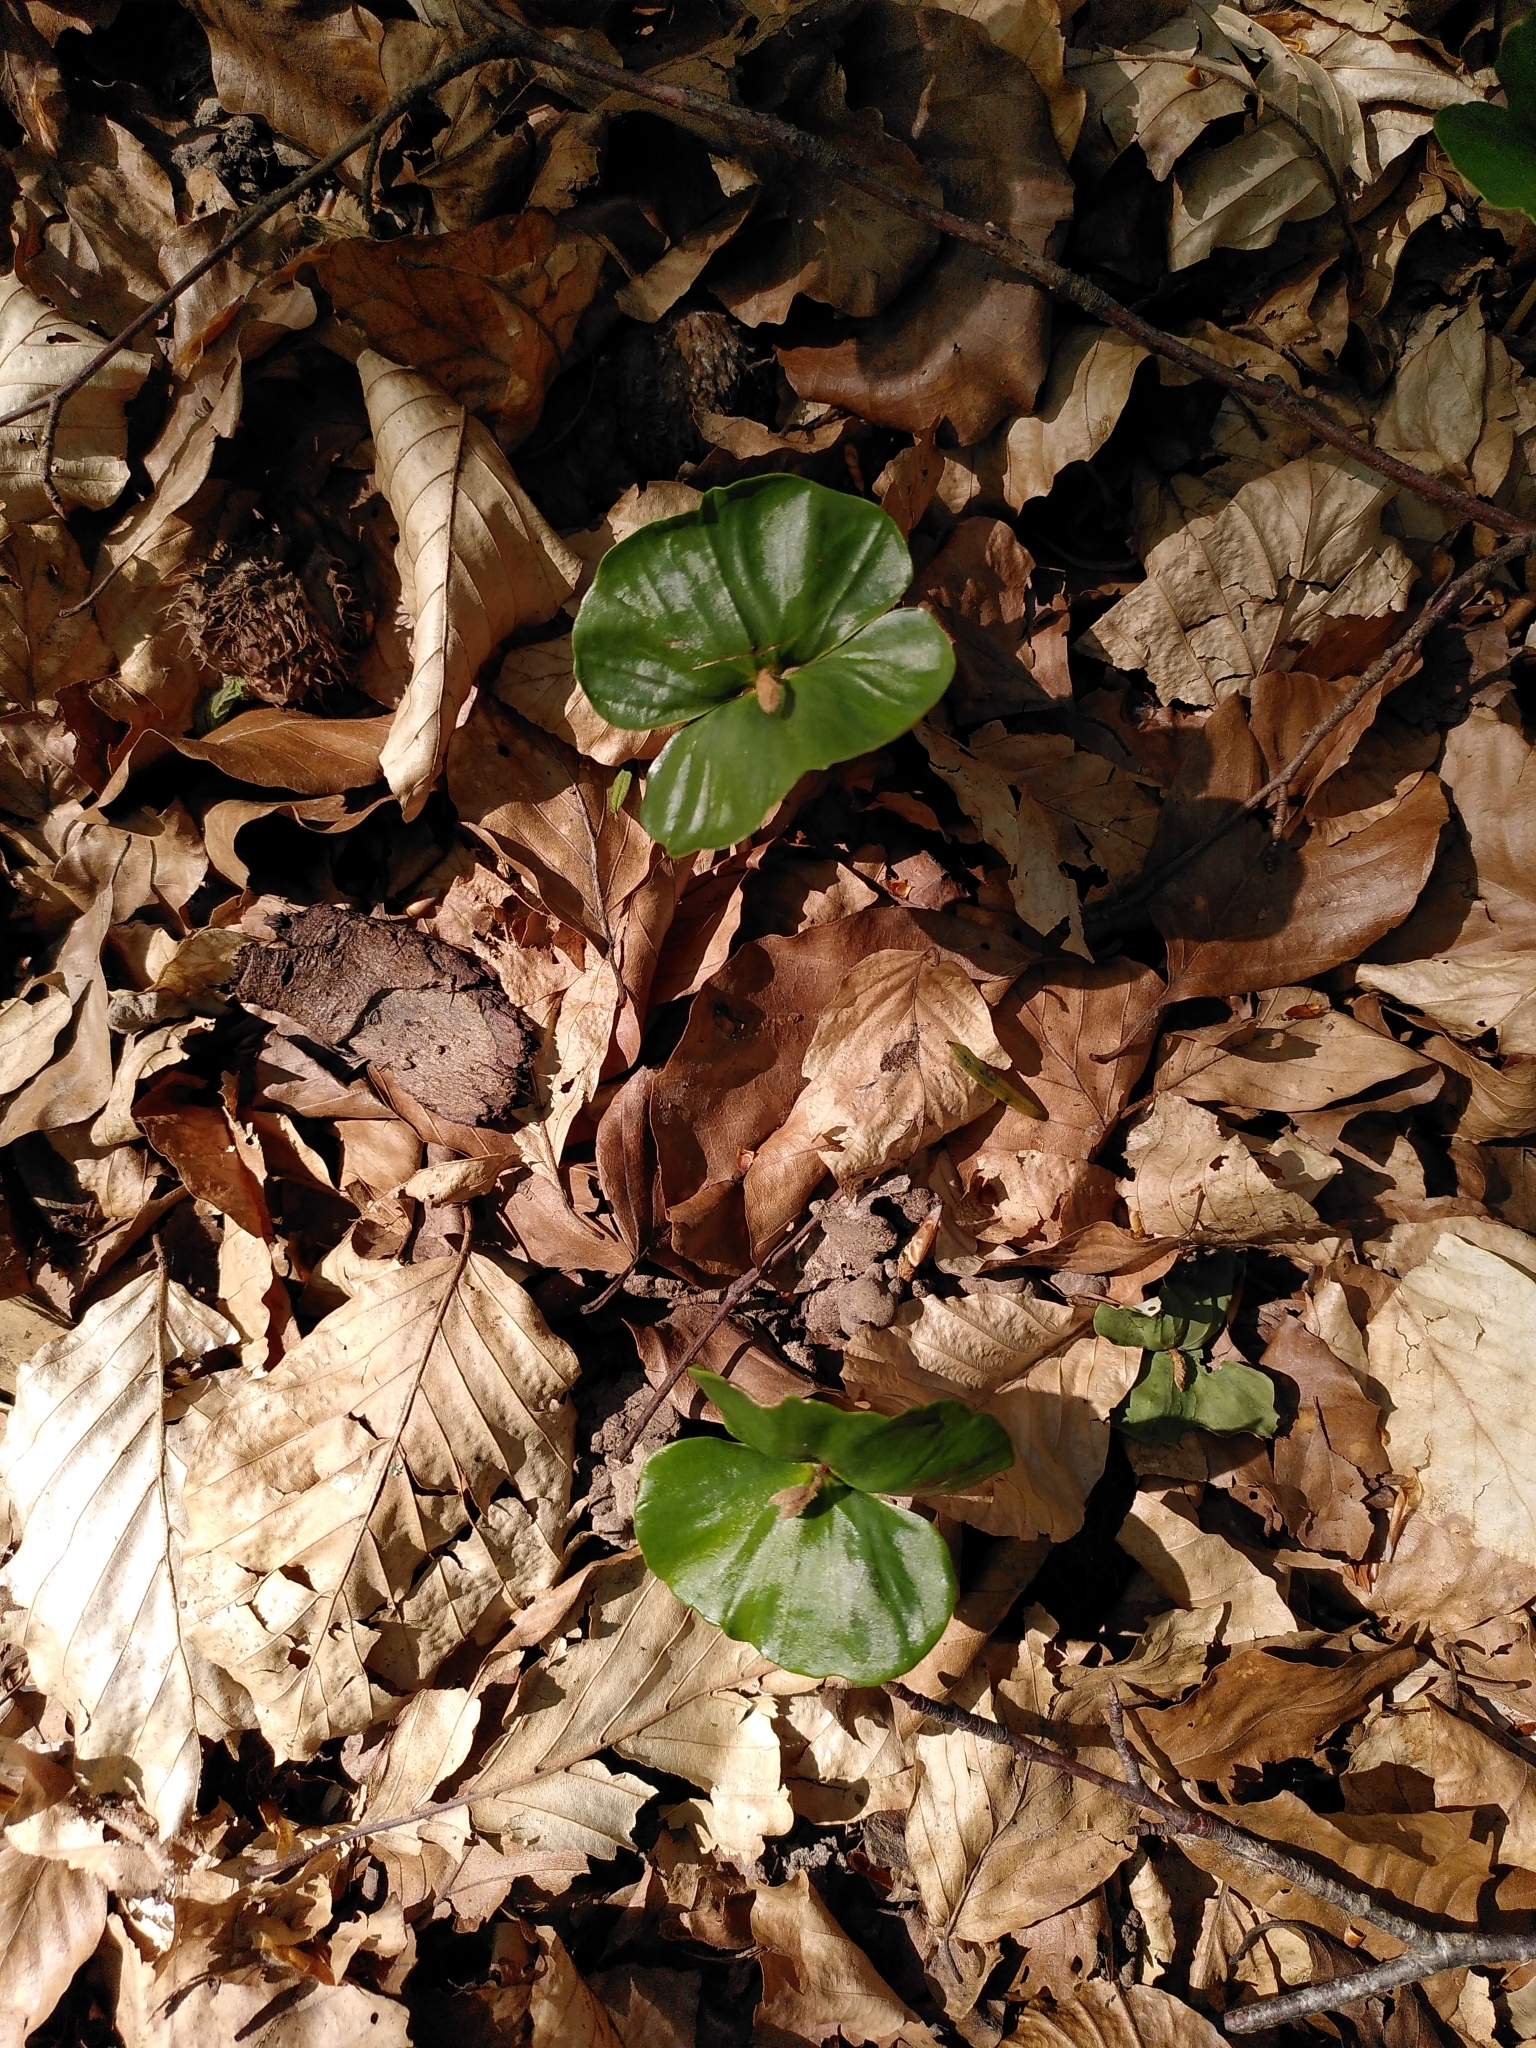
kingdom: Plantae
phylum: Tracheophyta
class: Magnoliopsida
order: Fagales
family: Fagaceae
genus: Fagus
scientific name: Fagus sylvatica
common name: Beech
